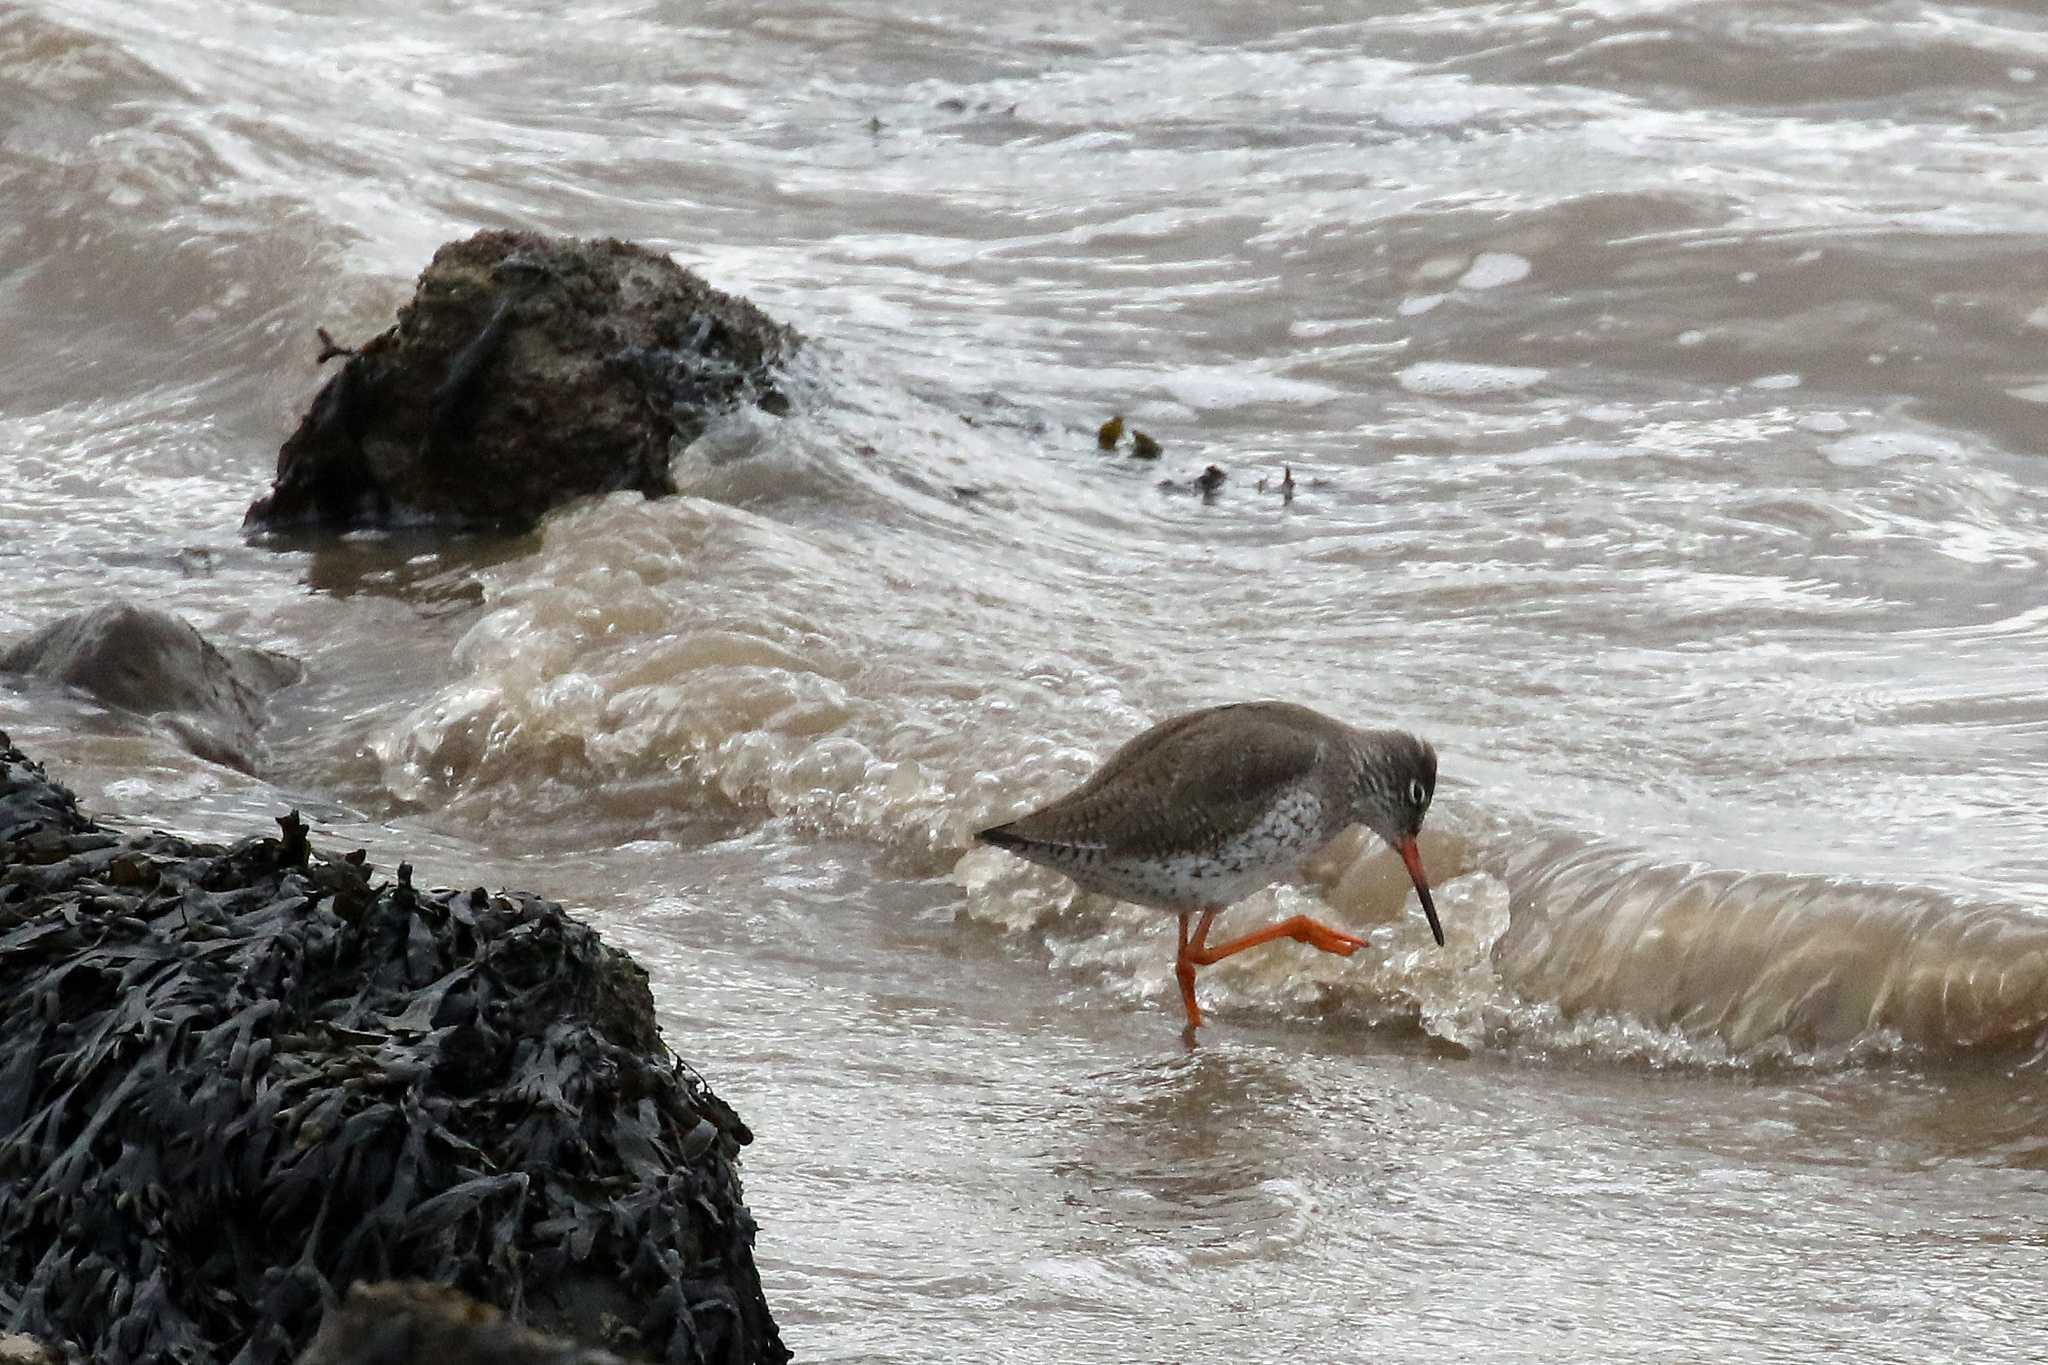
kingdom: Animalia
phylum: Chordata
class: Aves
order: Charadriiformes
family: Scolopacidae
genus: Tringa
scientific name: Tringa totanus
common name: Common redshank
